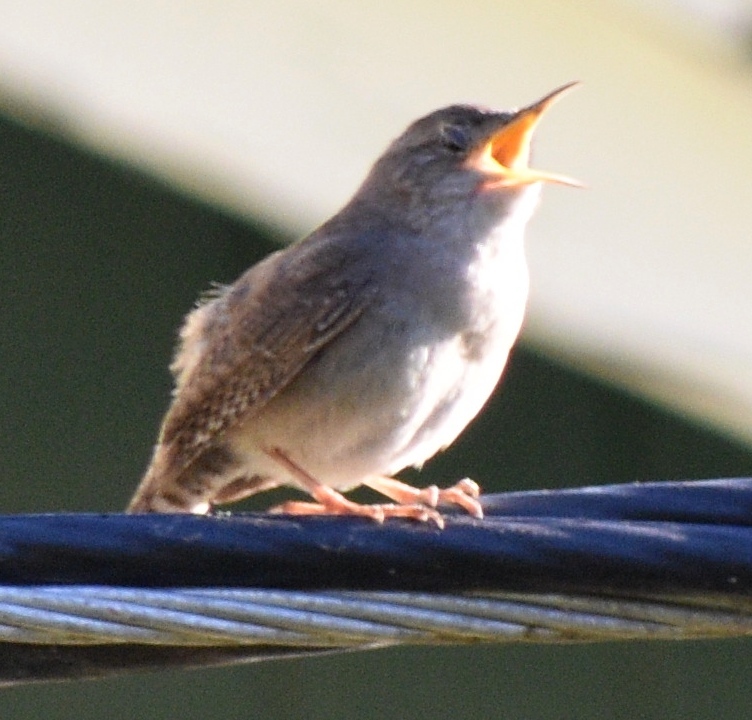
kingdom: Animalia
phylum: Chordata
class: Aves
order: Passeriformes
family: Troglodytidae
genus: Troglodytes
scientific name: Troglodytes aedon
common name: House wren
